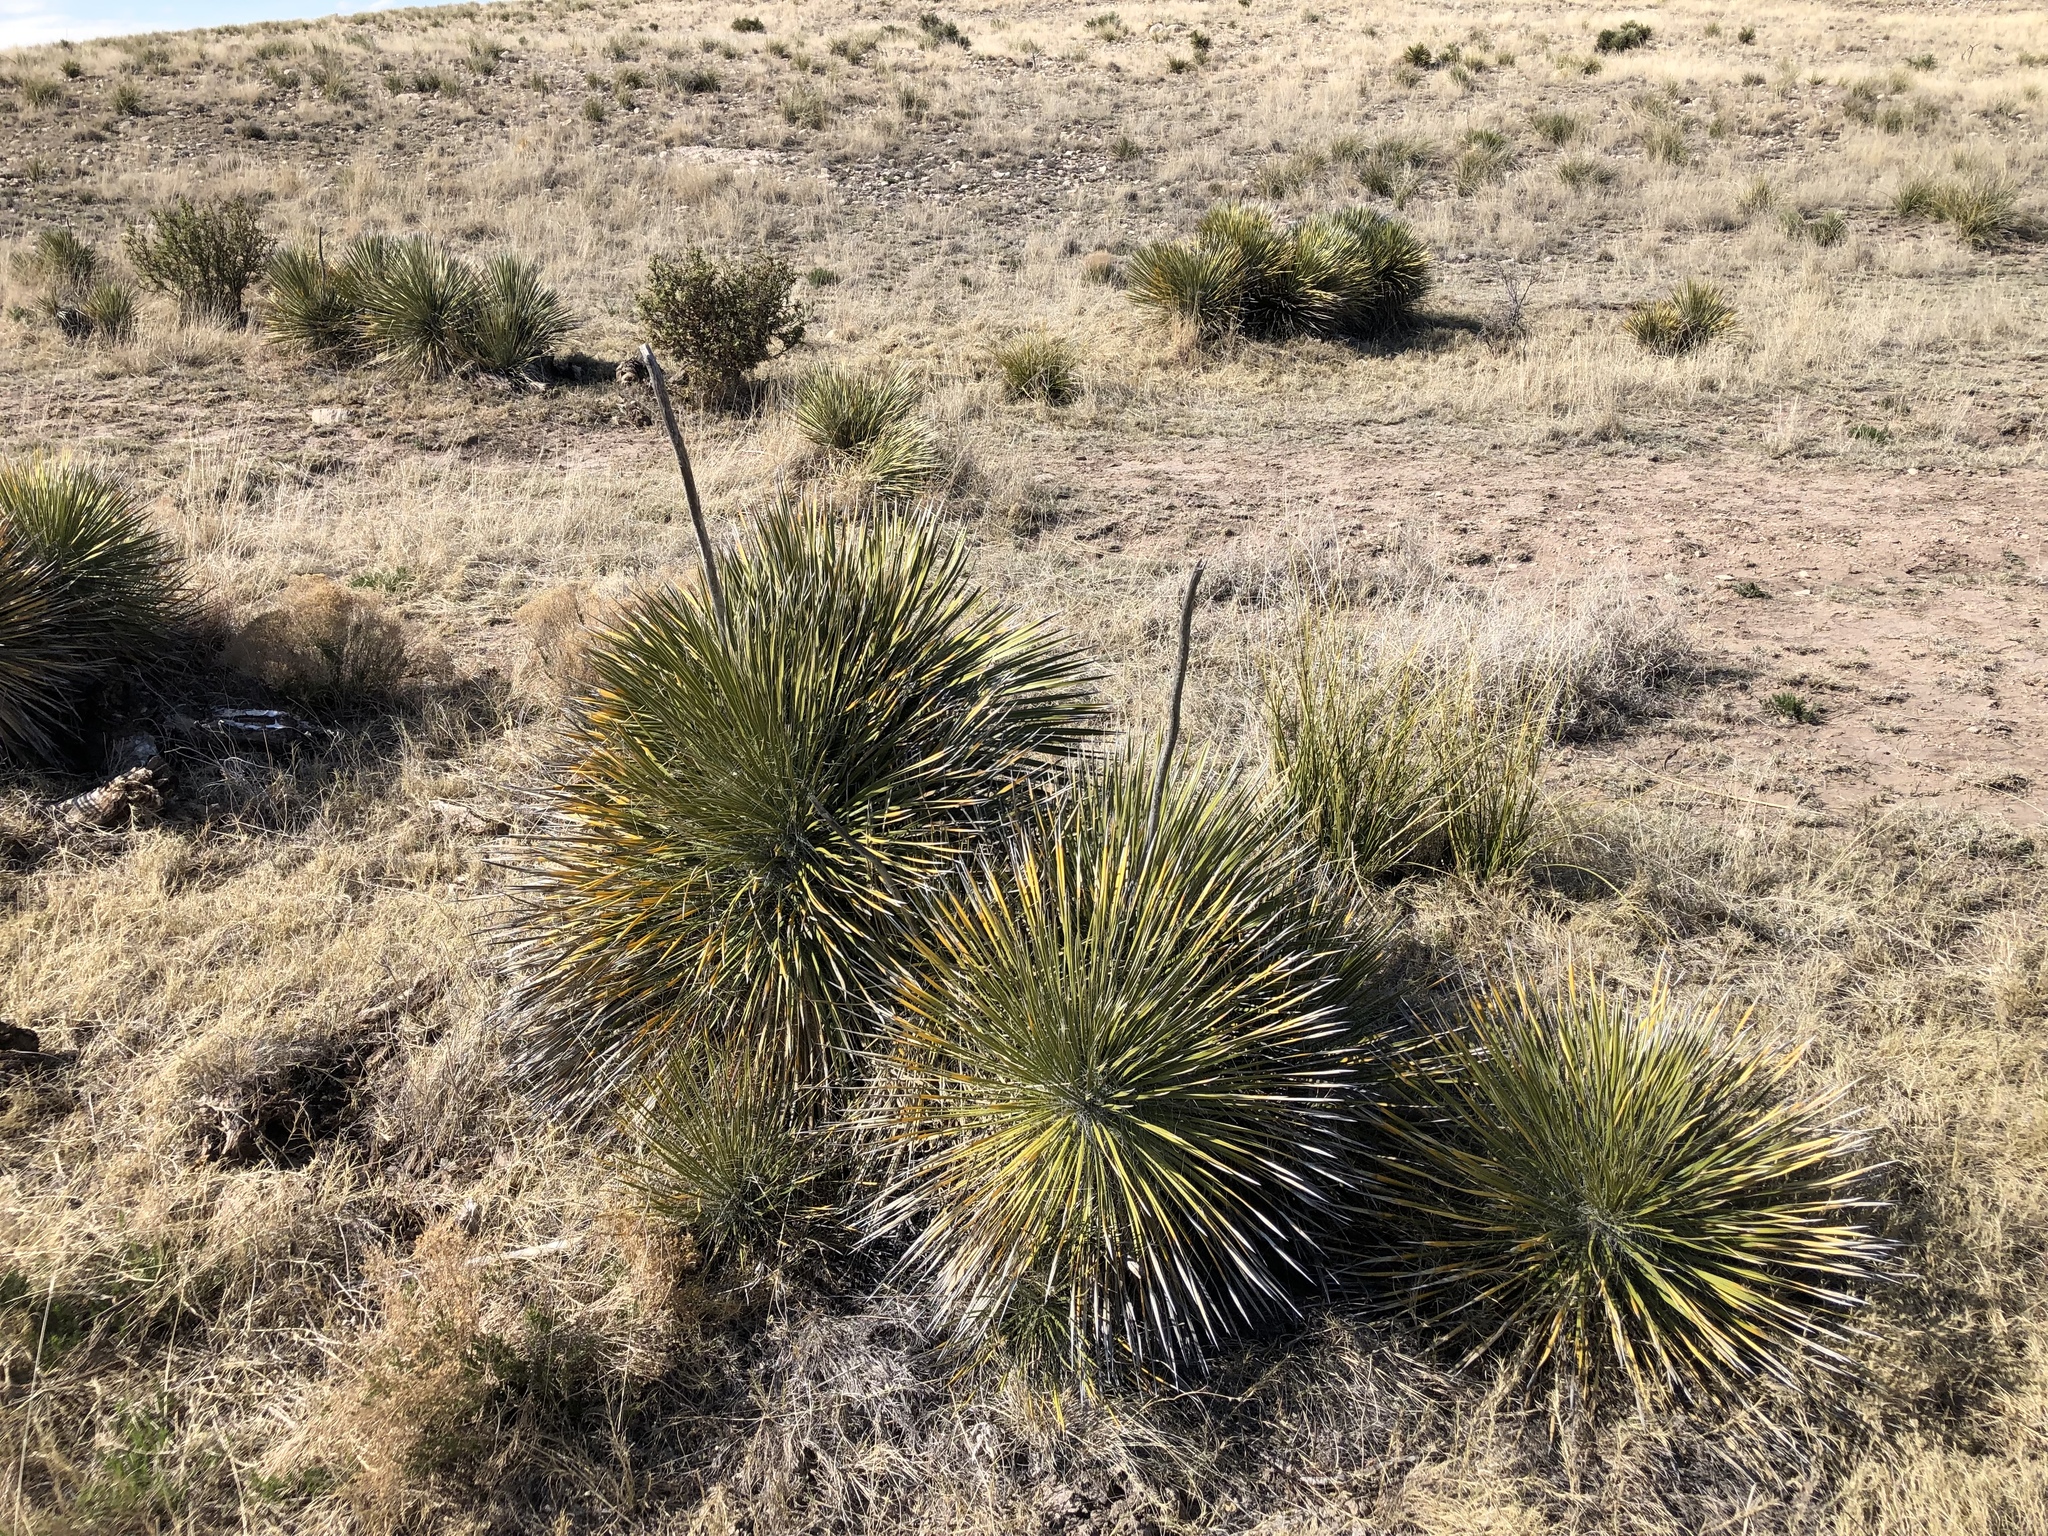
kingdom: Plantae
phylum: Tracheophyta
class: Liliopsida
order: Asparagales
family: Asparagaceae
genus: Yucca
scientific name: Yucca elata
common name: Palmella
